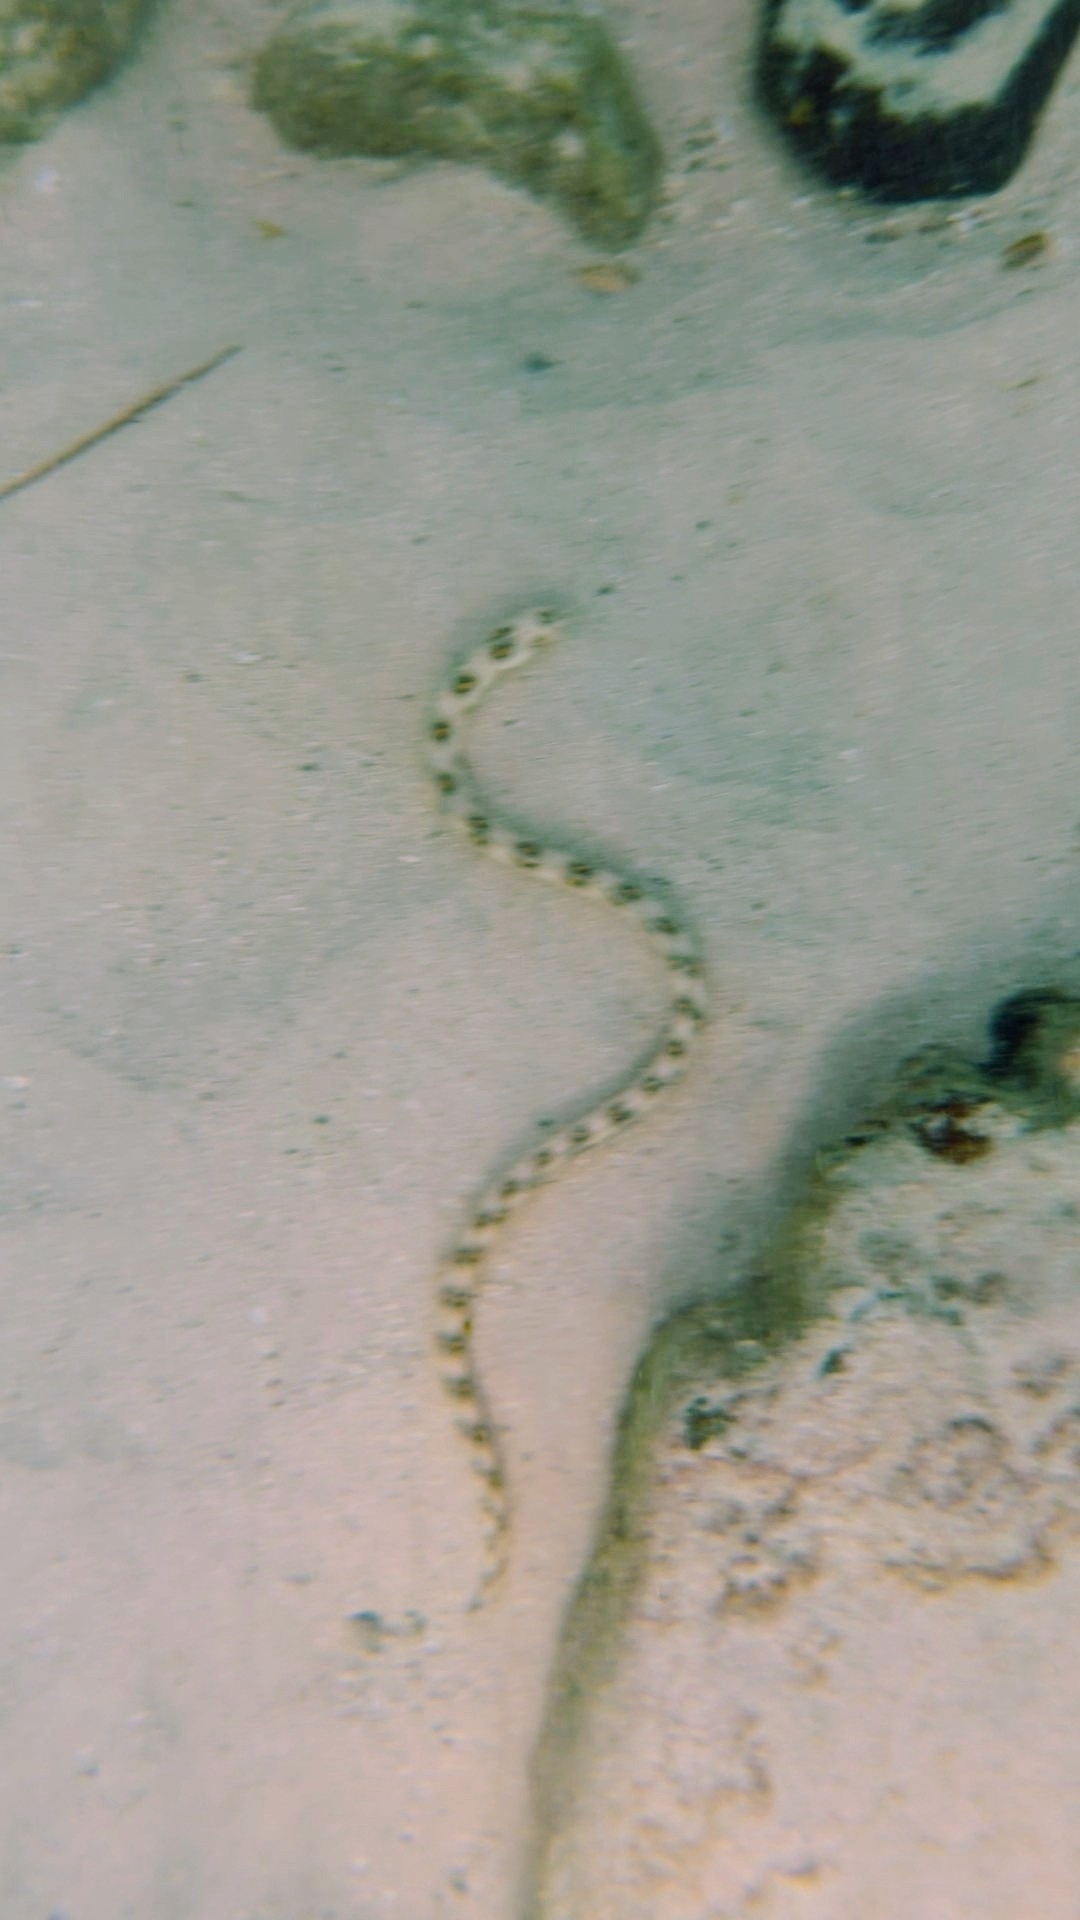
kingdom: Animalia
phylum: Chordata
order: Anguilliformes
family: Ophichthidae
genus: Myrichthys
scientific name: Myrichthys ocellatus
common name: Goldspotted eel
